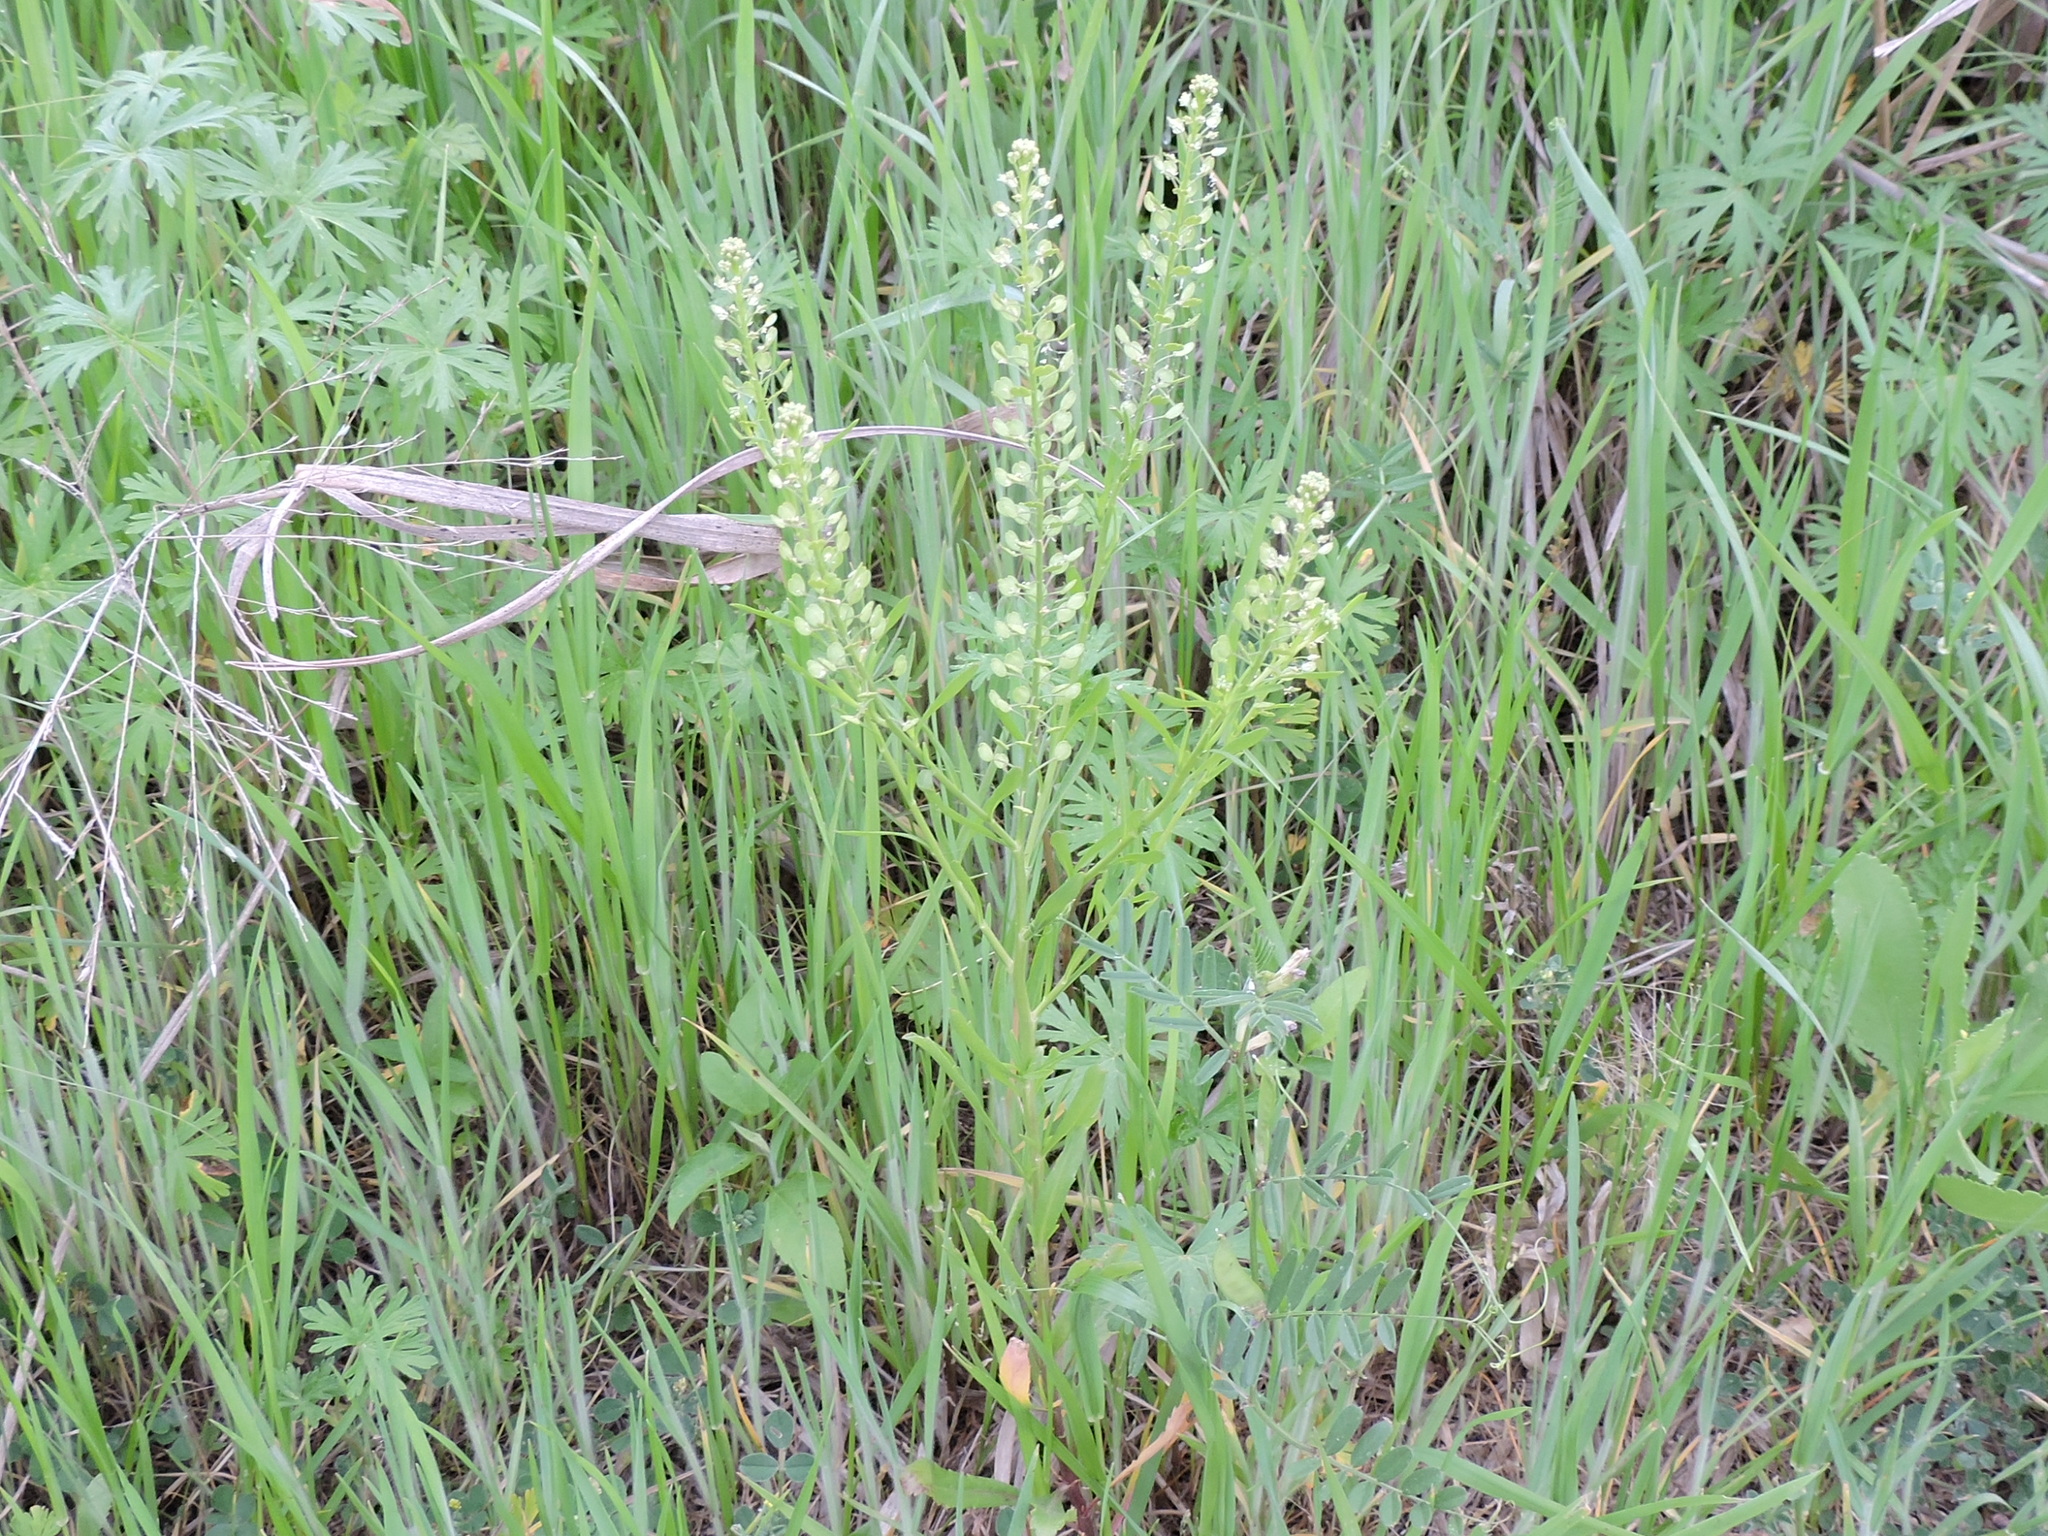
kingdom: Plantae
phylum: Tracheophyta
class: Magnoliopsida
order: Brassicales
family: Brassicaceae
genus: Lepidium
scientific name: Lepidium virginicum
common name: Least pepperwort
